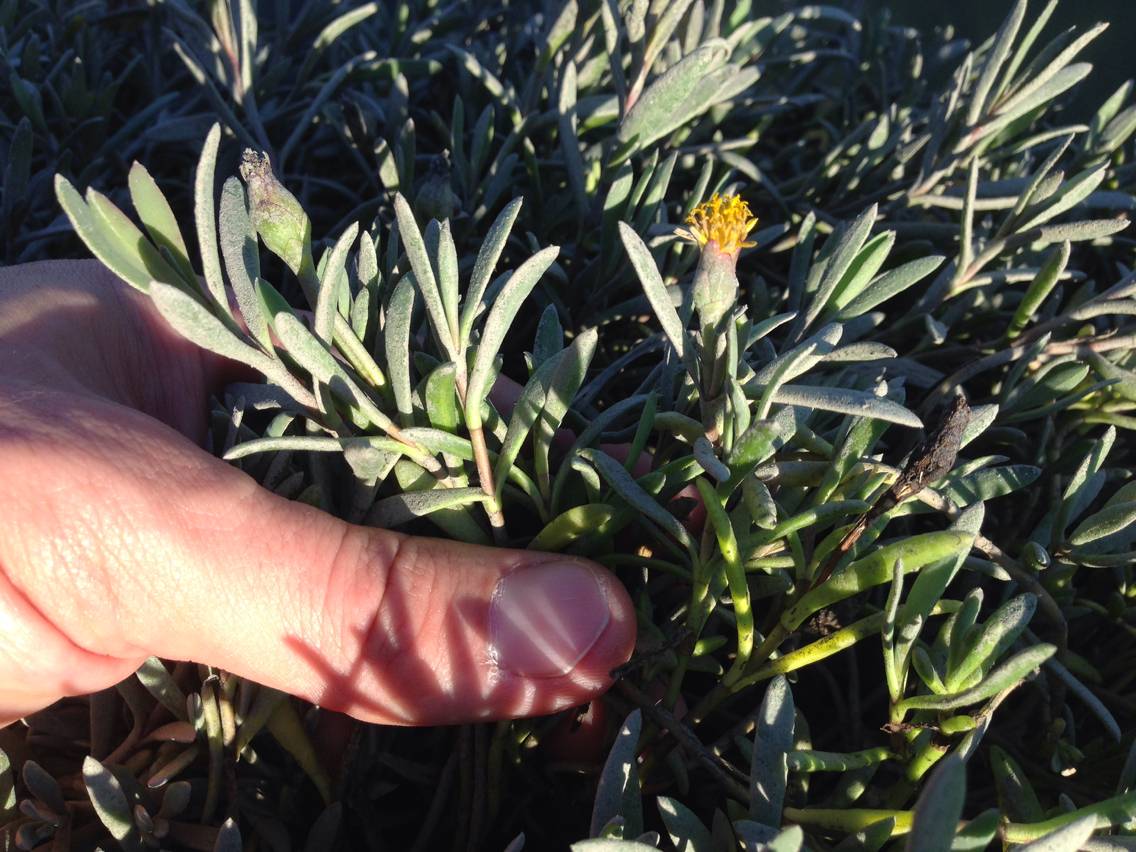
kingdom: Plantae
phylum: Tracheophyta
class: Magnoliopsida
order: Asterales
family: Asteraceae
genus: Jaumea
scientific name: Jaumea carnosa
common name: Fleshy jaumea
